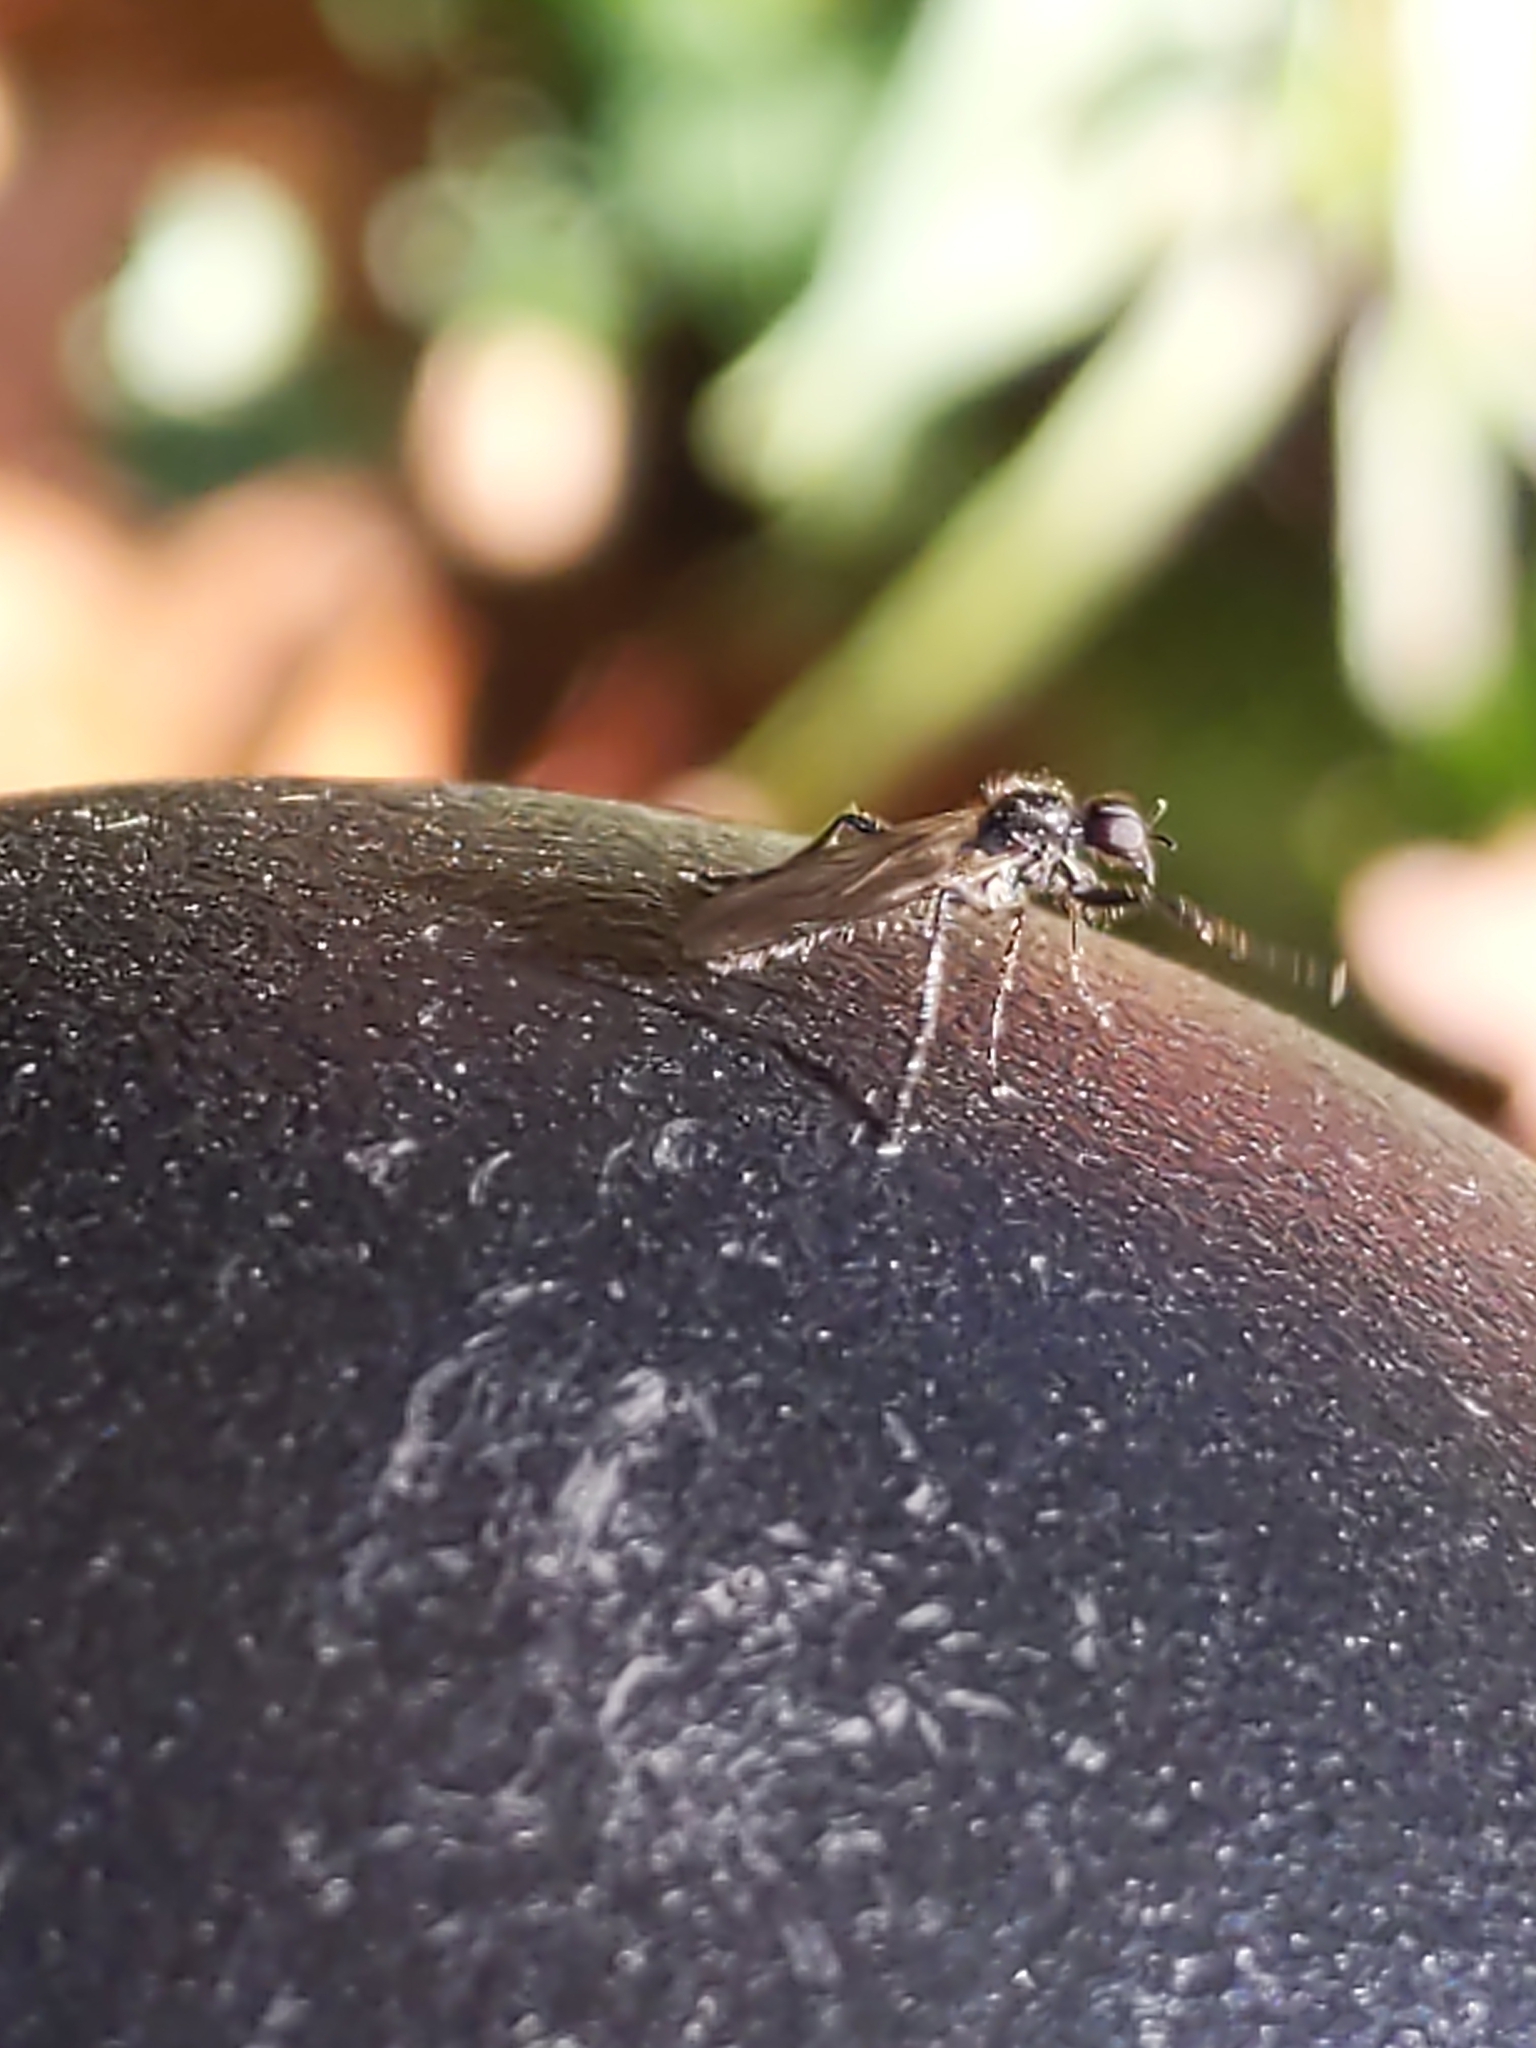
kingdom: Animalia
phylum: Arthropoda
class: Insecta
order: Diptera
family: Bibionidae
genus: Bibio
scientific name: Bibio longipes
